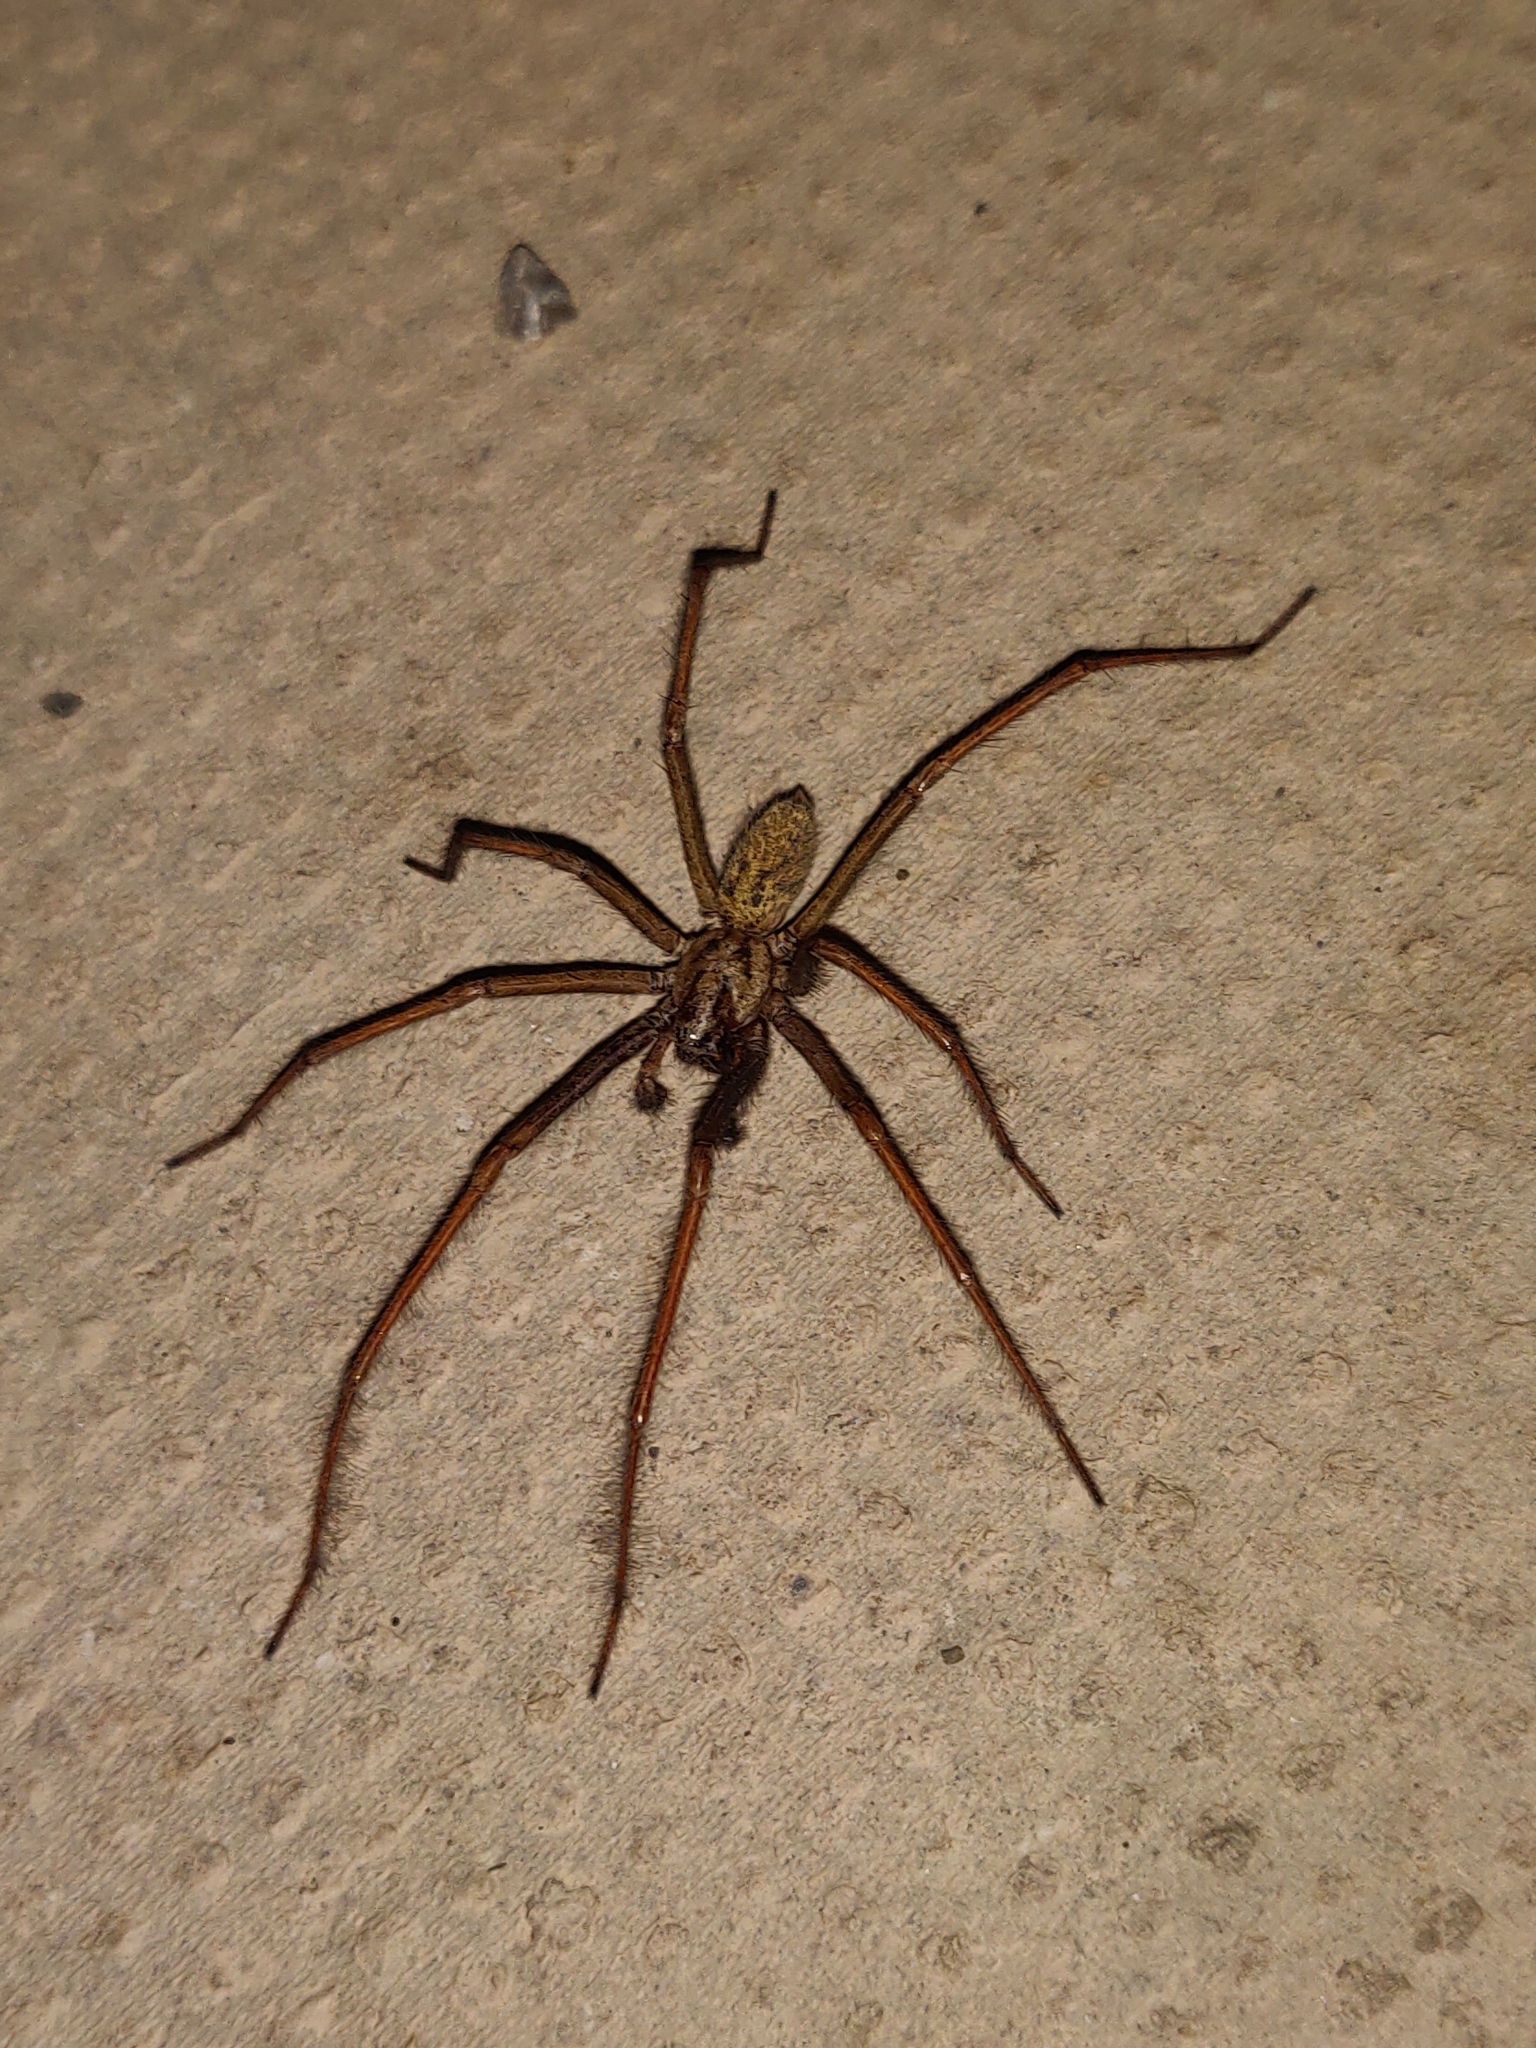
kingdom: Animalia
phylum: Arthropoda
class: Arachnida
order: Araneae
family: Agelenidae
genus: Eratigena
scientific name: Eratigena duellica
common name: Giant house spider
